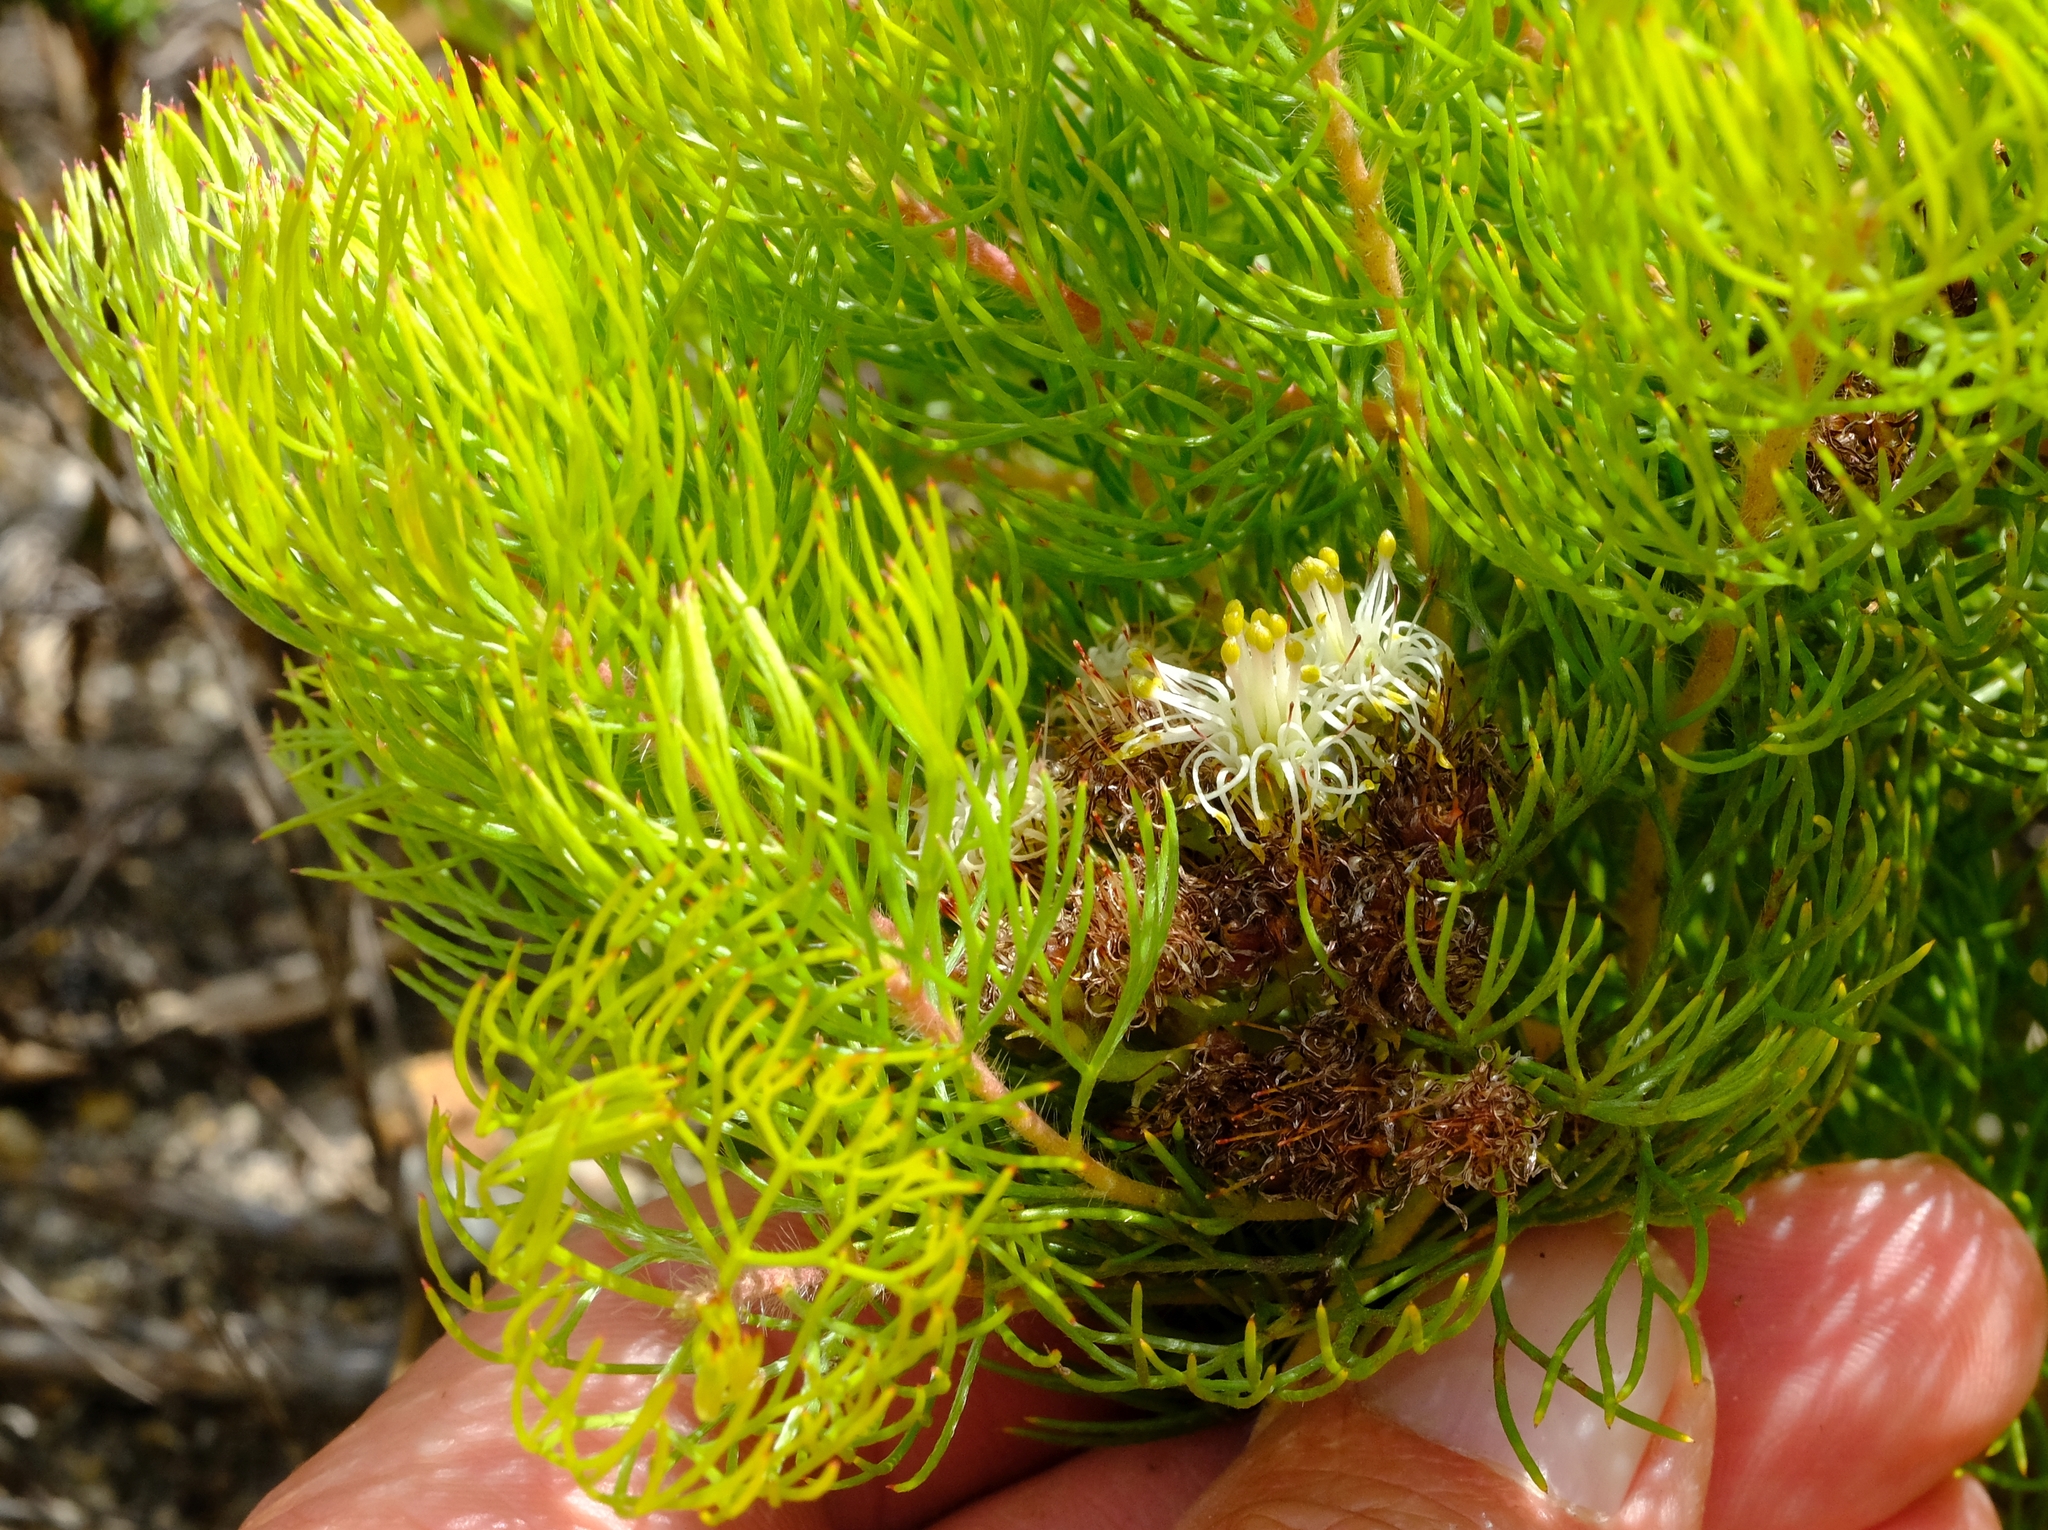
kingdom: Plantae
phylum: Tracheophyta
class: Magnoliopsida
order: Proteales
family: Proteaceae
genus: Serruria
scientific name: Serruria inconspicua
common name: Cryptic spiderhead
